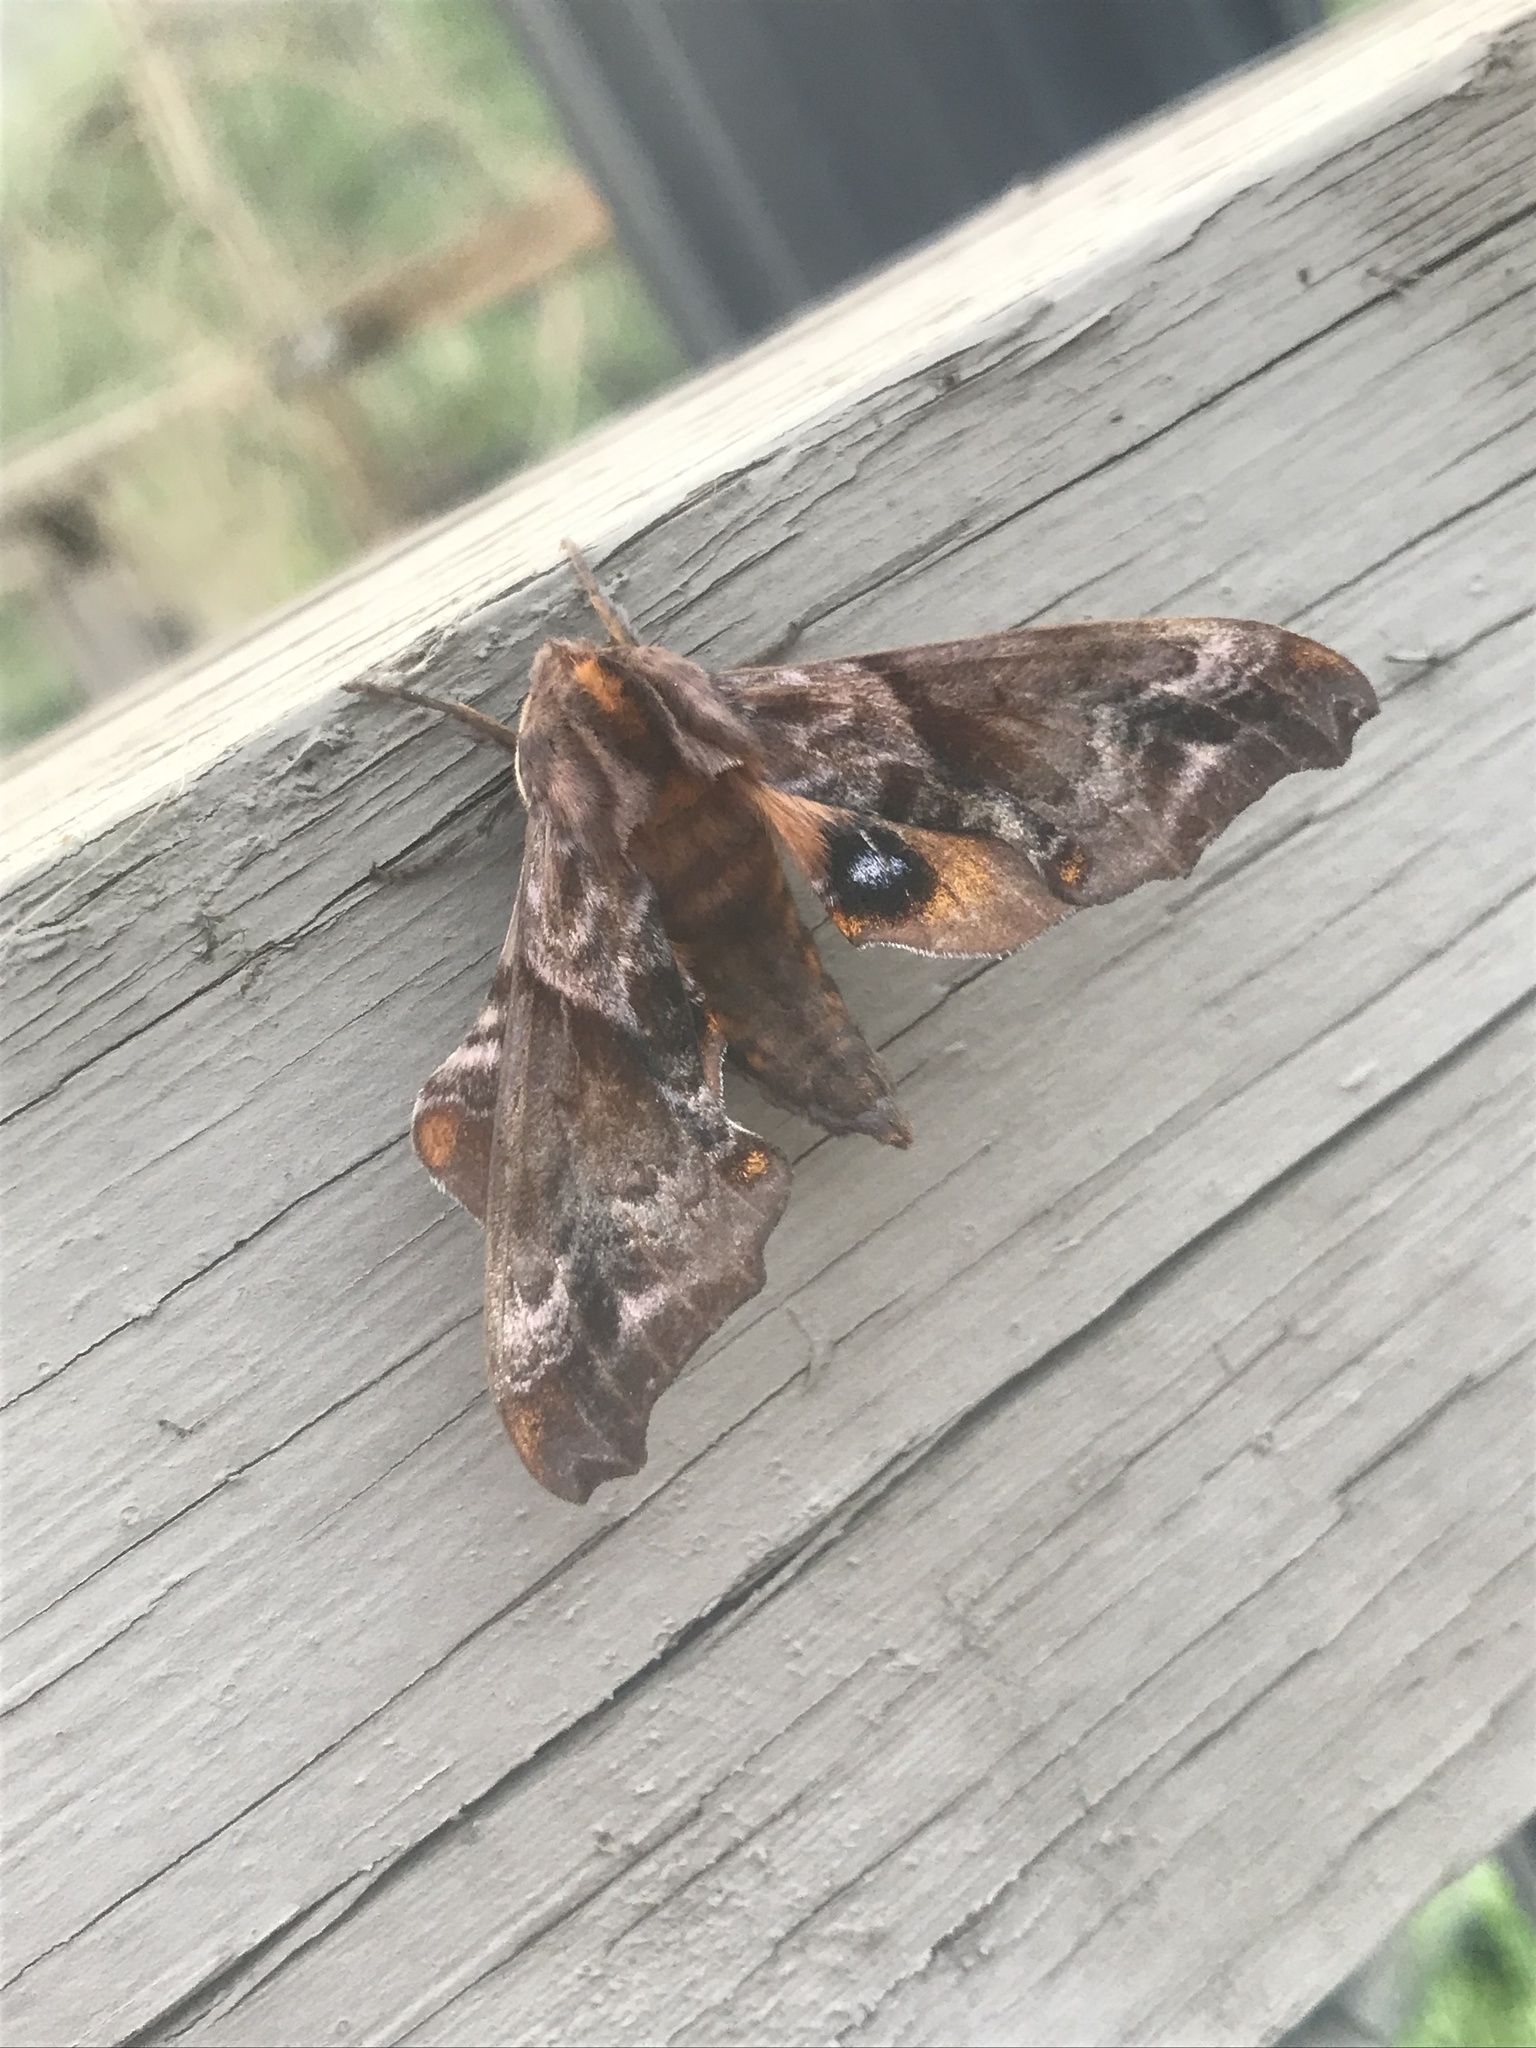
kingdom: Animalia
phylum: Arthropoda
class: Insecta
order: Lepidoptera
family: Sphingidae
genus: Paonias
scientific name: Paonias myops
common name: Small-eyed sphinx
